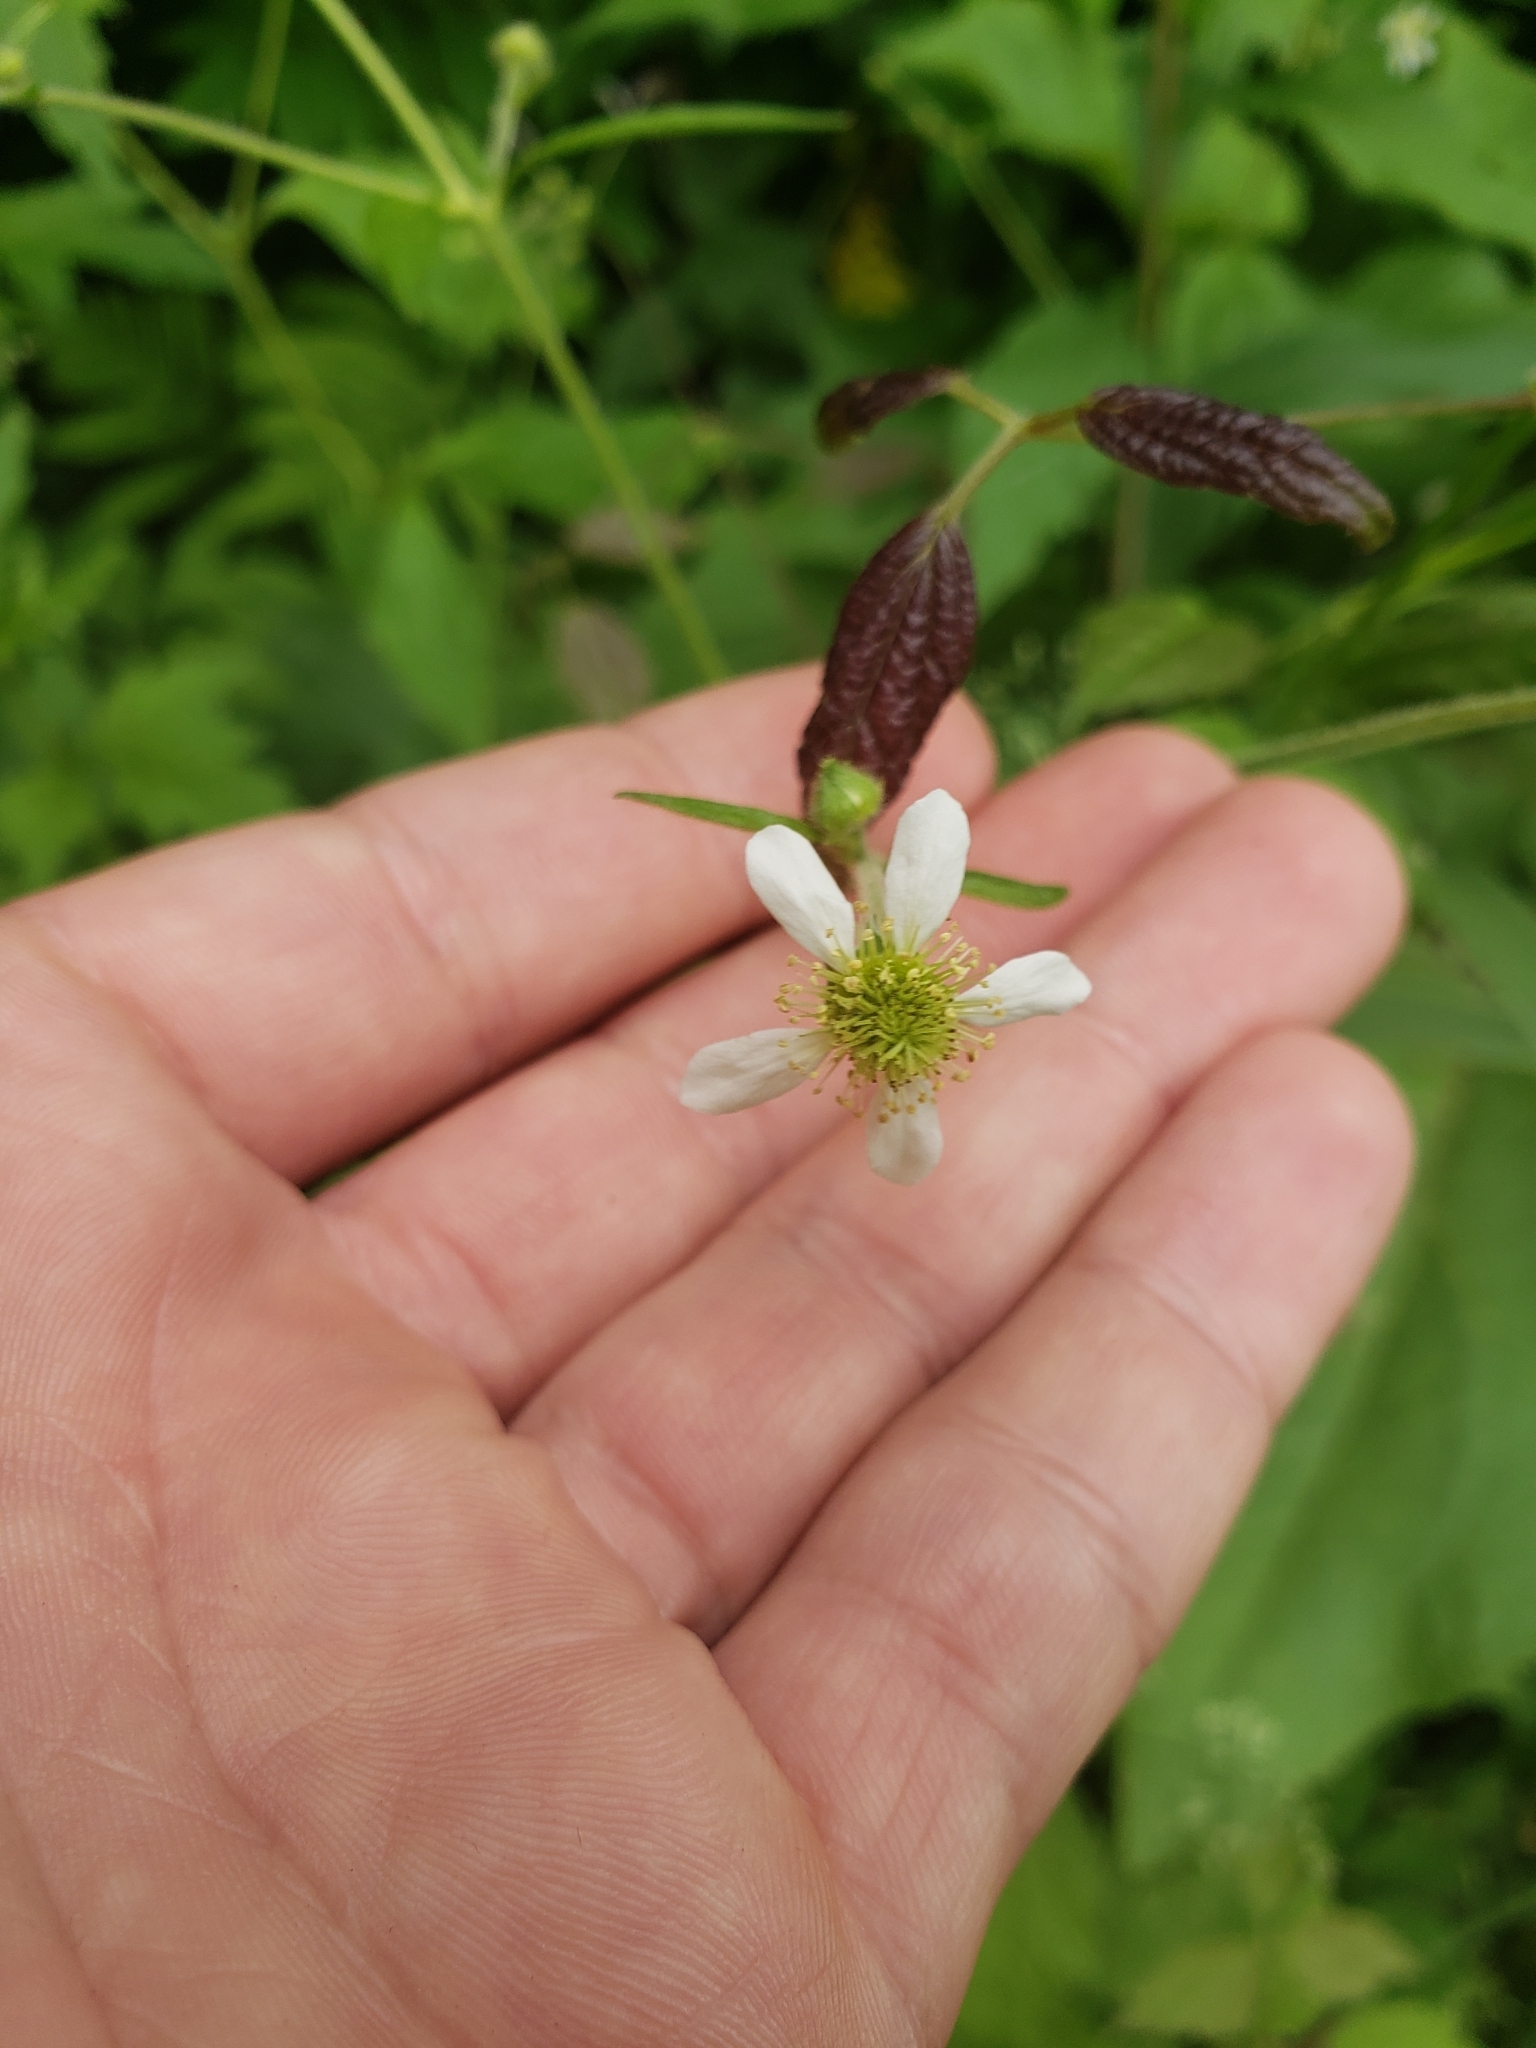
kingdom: Plantae
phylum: Tracheophyta
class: Magnoliopsida
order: Rosales
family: Rosaceae
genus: Geum
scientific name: Geum canadense
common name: White avens
